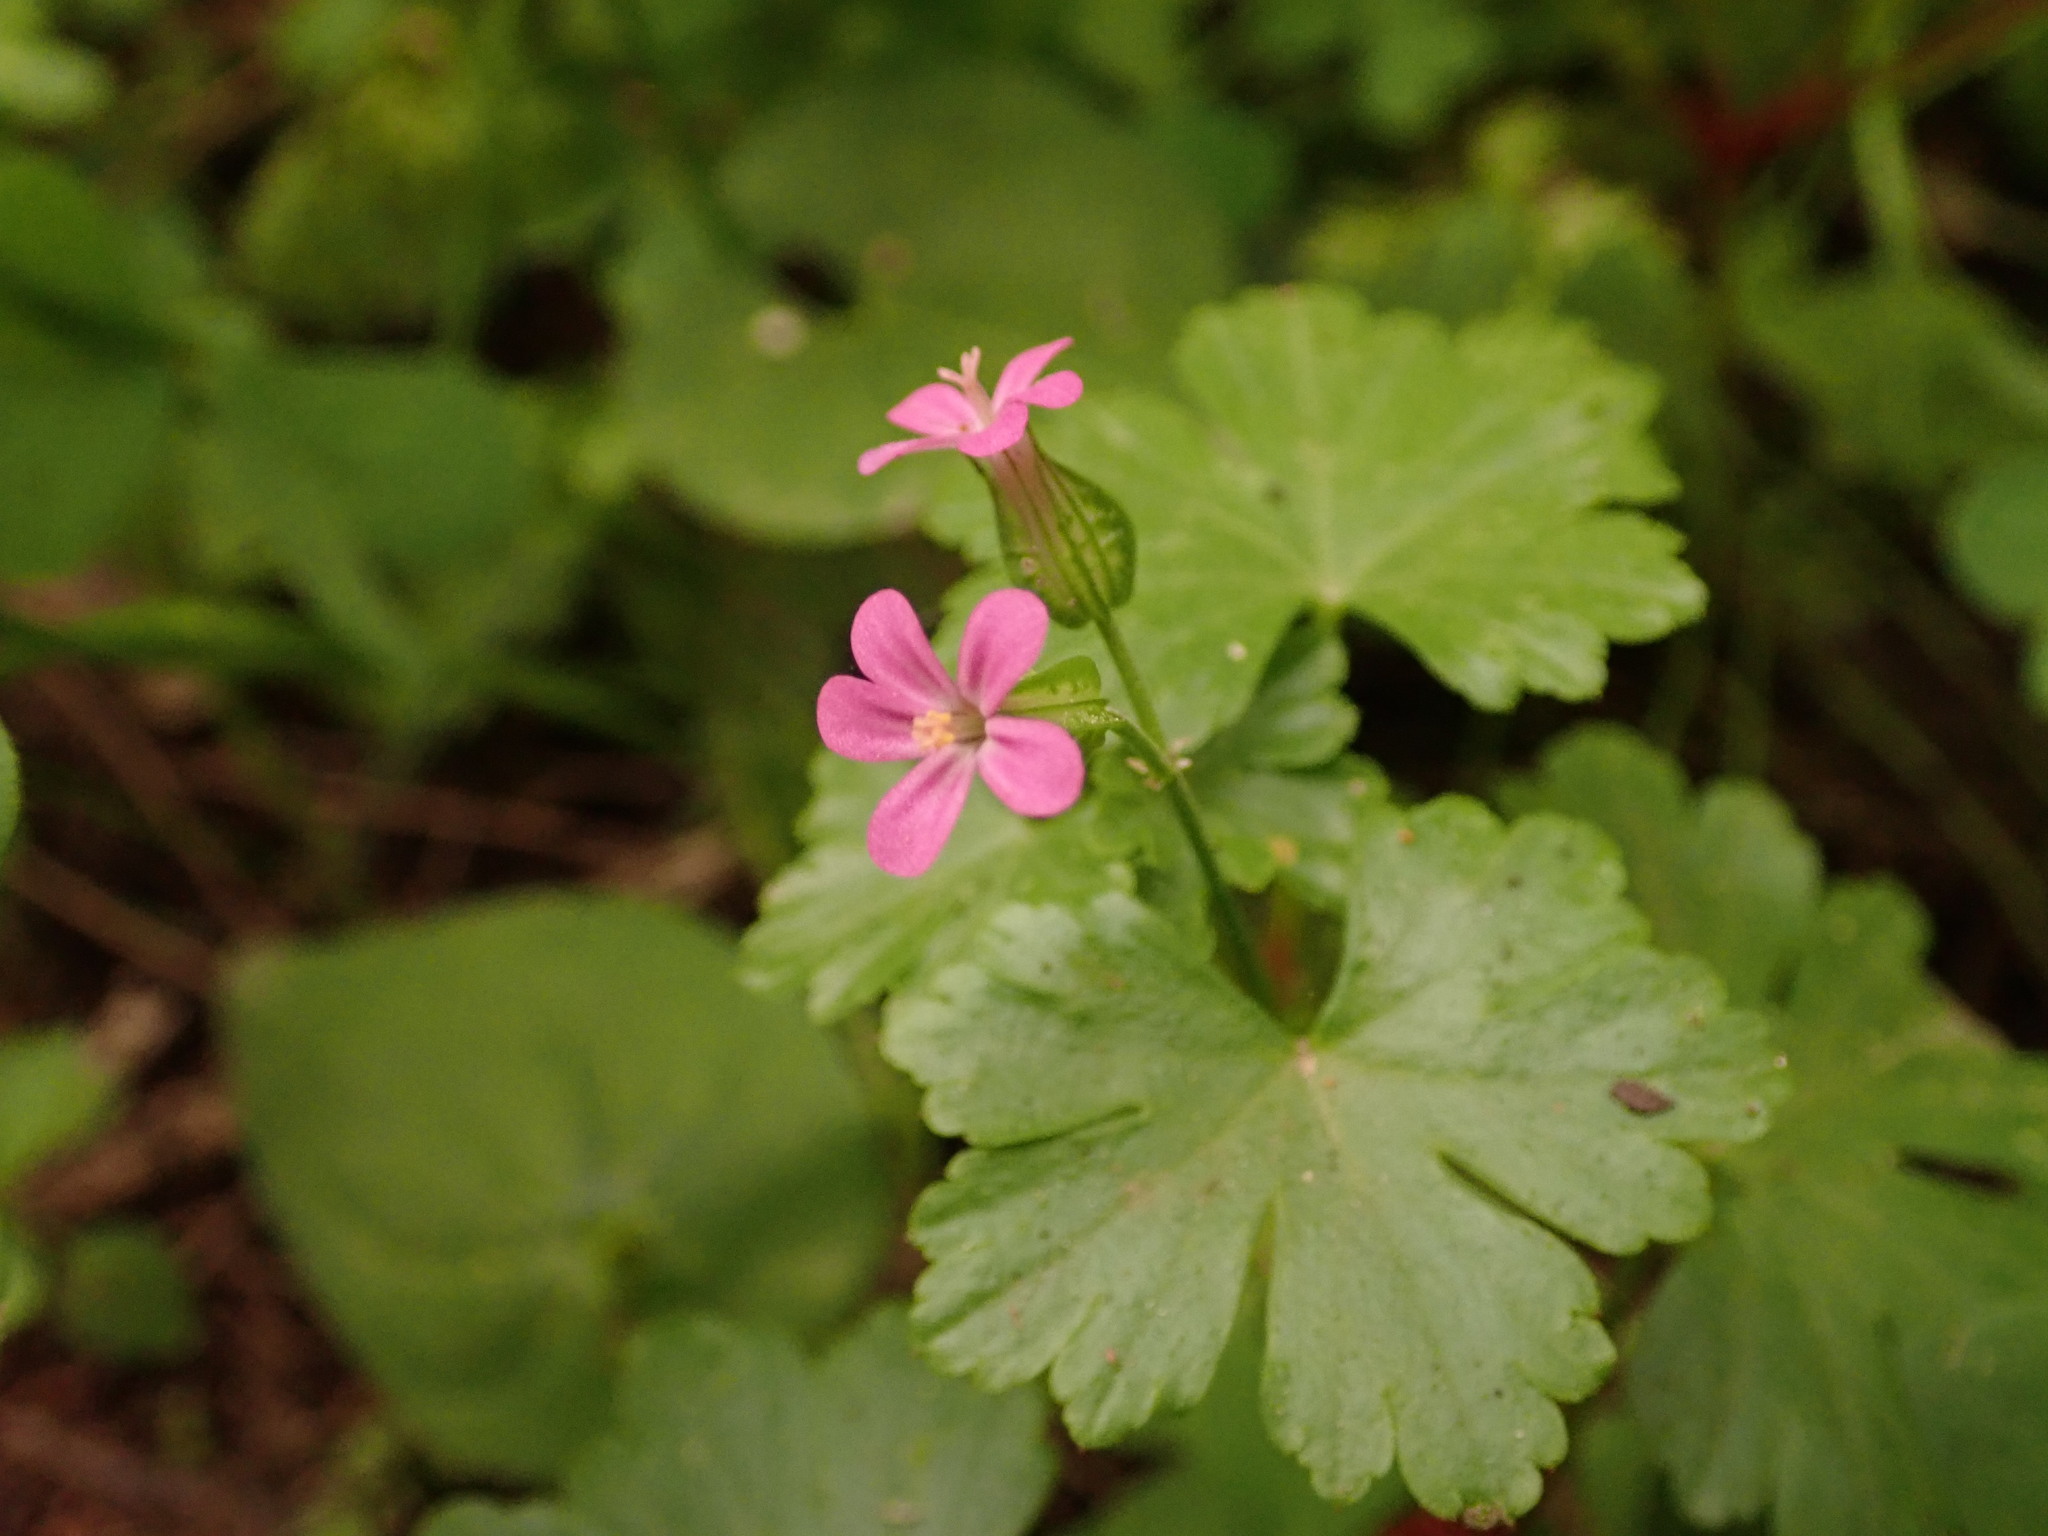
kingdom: Plantae
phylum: Tracheophyta
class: Magnoliopsida
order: Geraniales
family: Geraniaceae
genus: Geranium
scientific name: Geranium lucidum
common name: Shining crane's-bill
